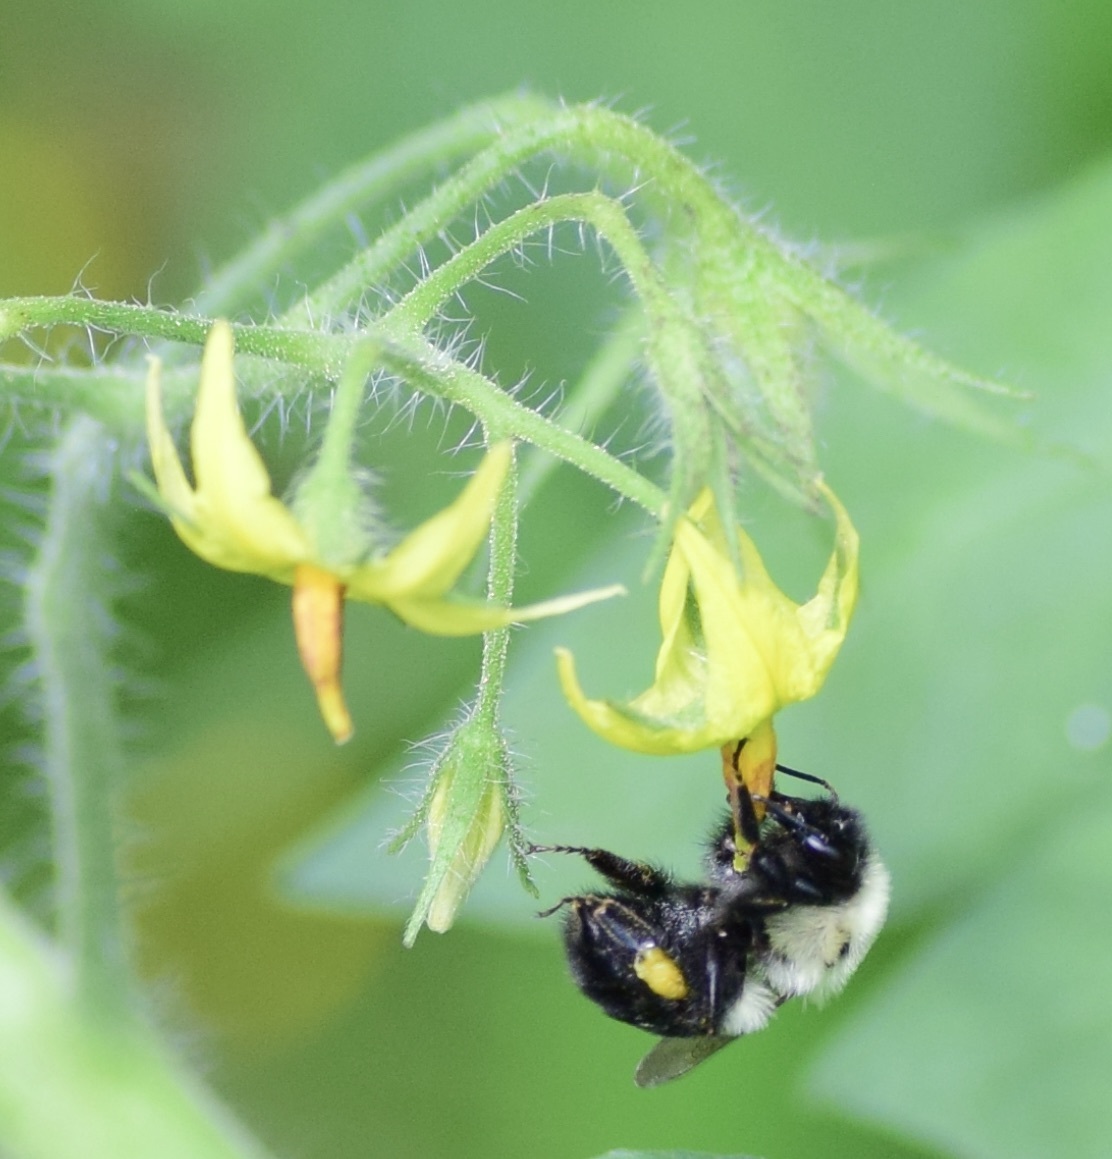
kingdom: Animalia
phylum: Arthropoda
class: Insecta
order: Hymenoptera
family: Apidae
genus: Bombus
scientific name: Bombus impatiens
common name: Common eastern bumble bee
